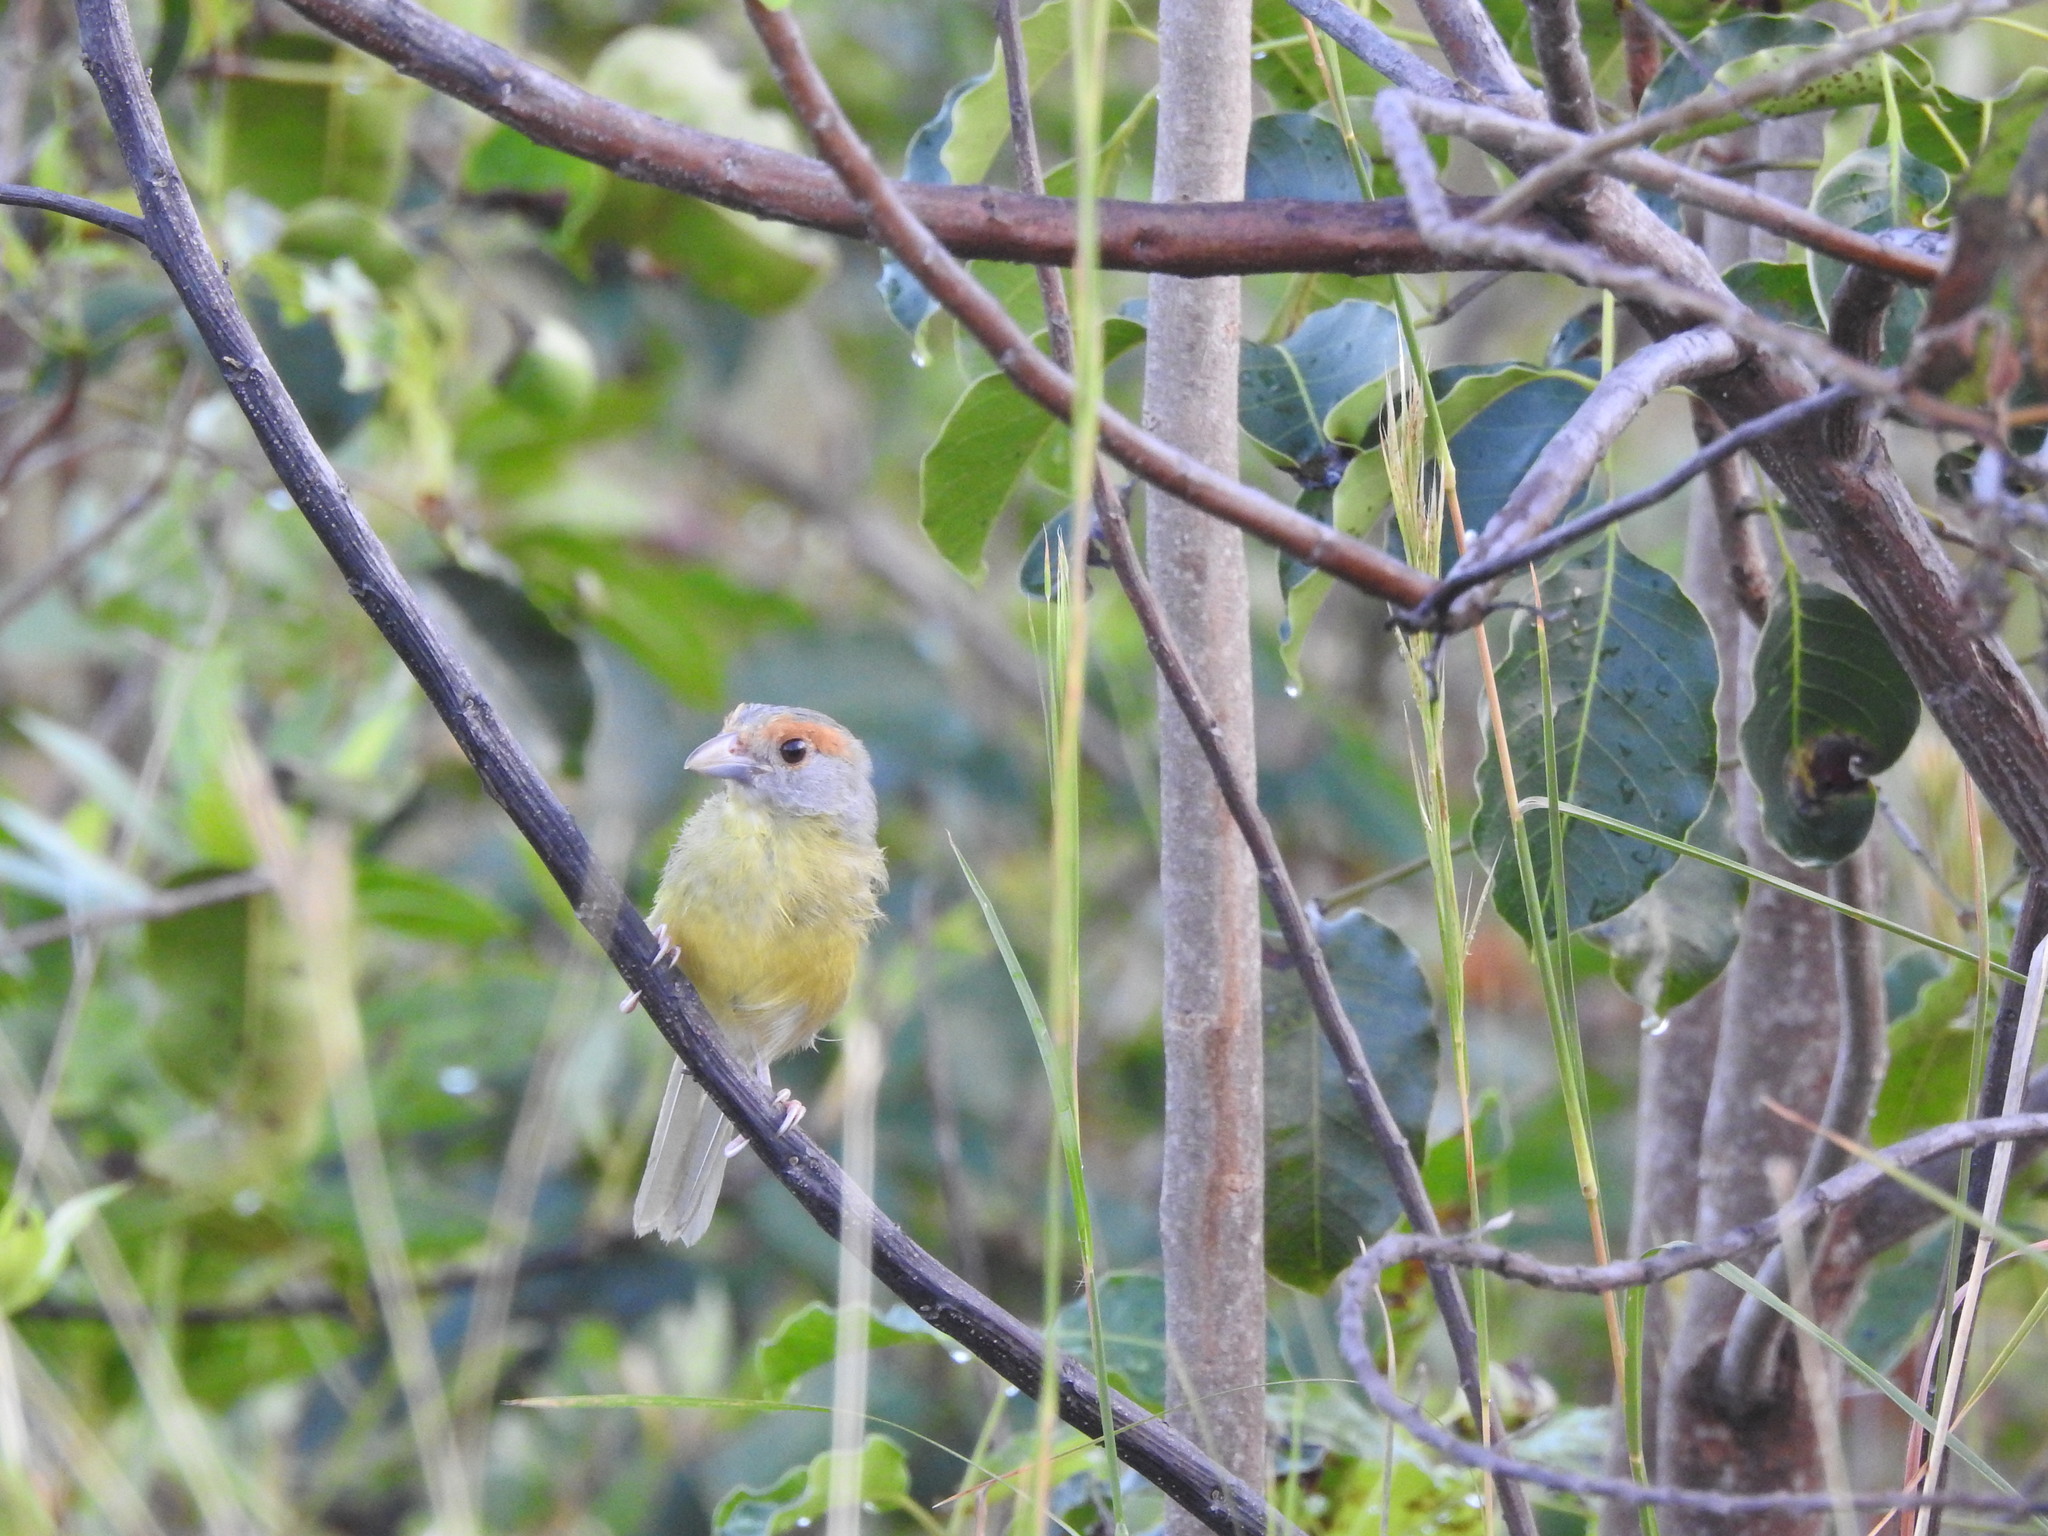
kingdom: Animalia
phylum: Chordata
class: Aves
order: Passeriformes
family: Vireonidae
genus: Cyclarhis
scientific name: Cyclarhis gujanensis
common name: Rufous-browed peppershrike
